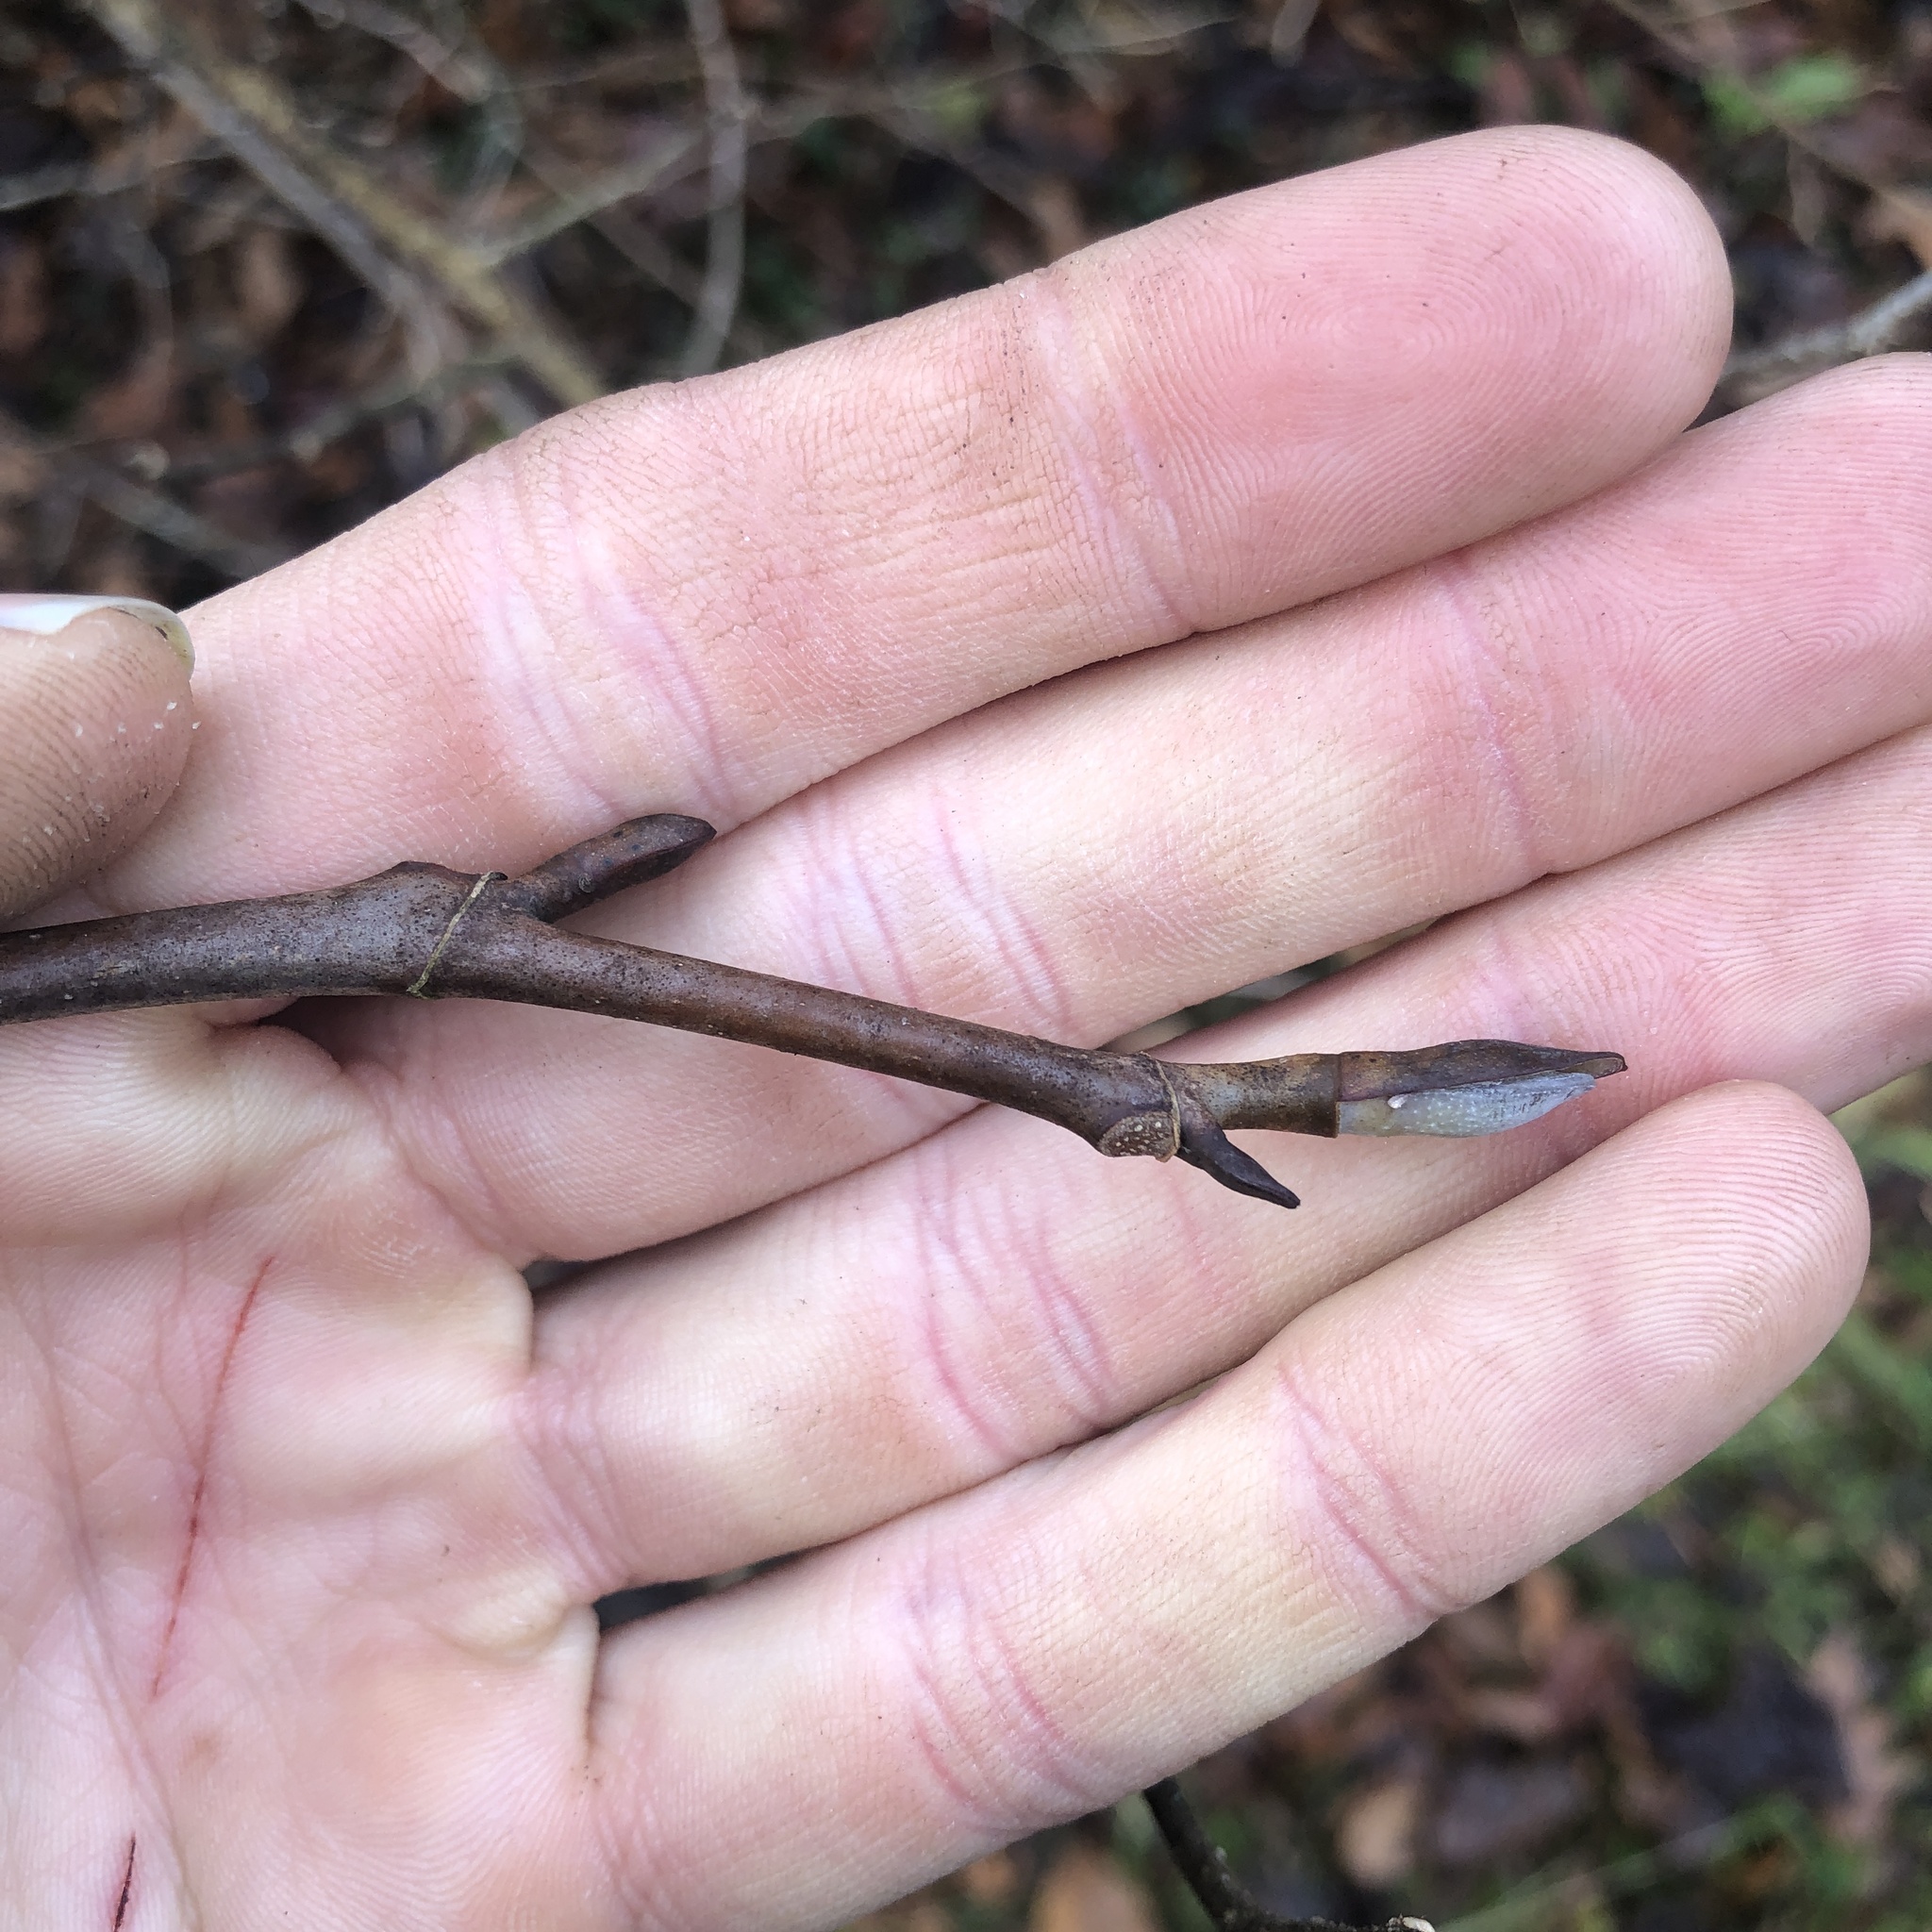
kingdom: Plantae
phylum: Tracheophyta
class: Magnoliopsida
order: Magnoliales
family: Magnoliaceae
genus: Liriodendron
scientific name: Liriodendron tulipifera
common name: Tulip tree
